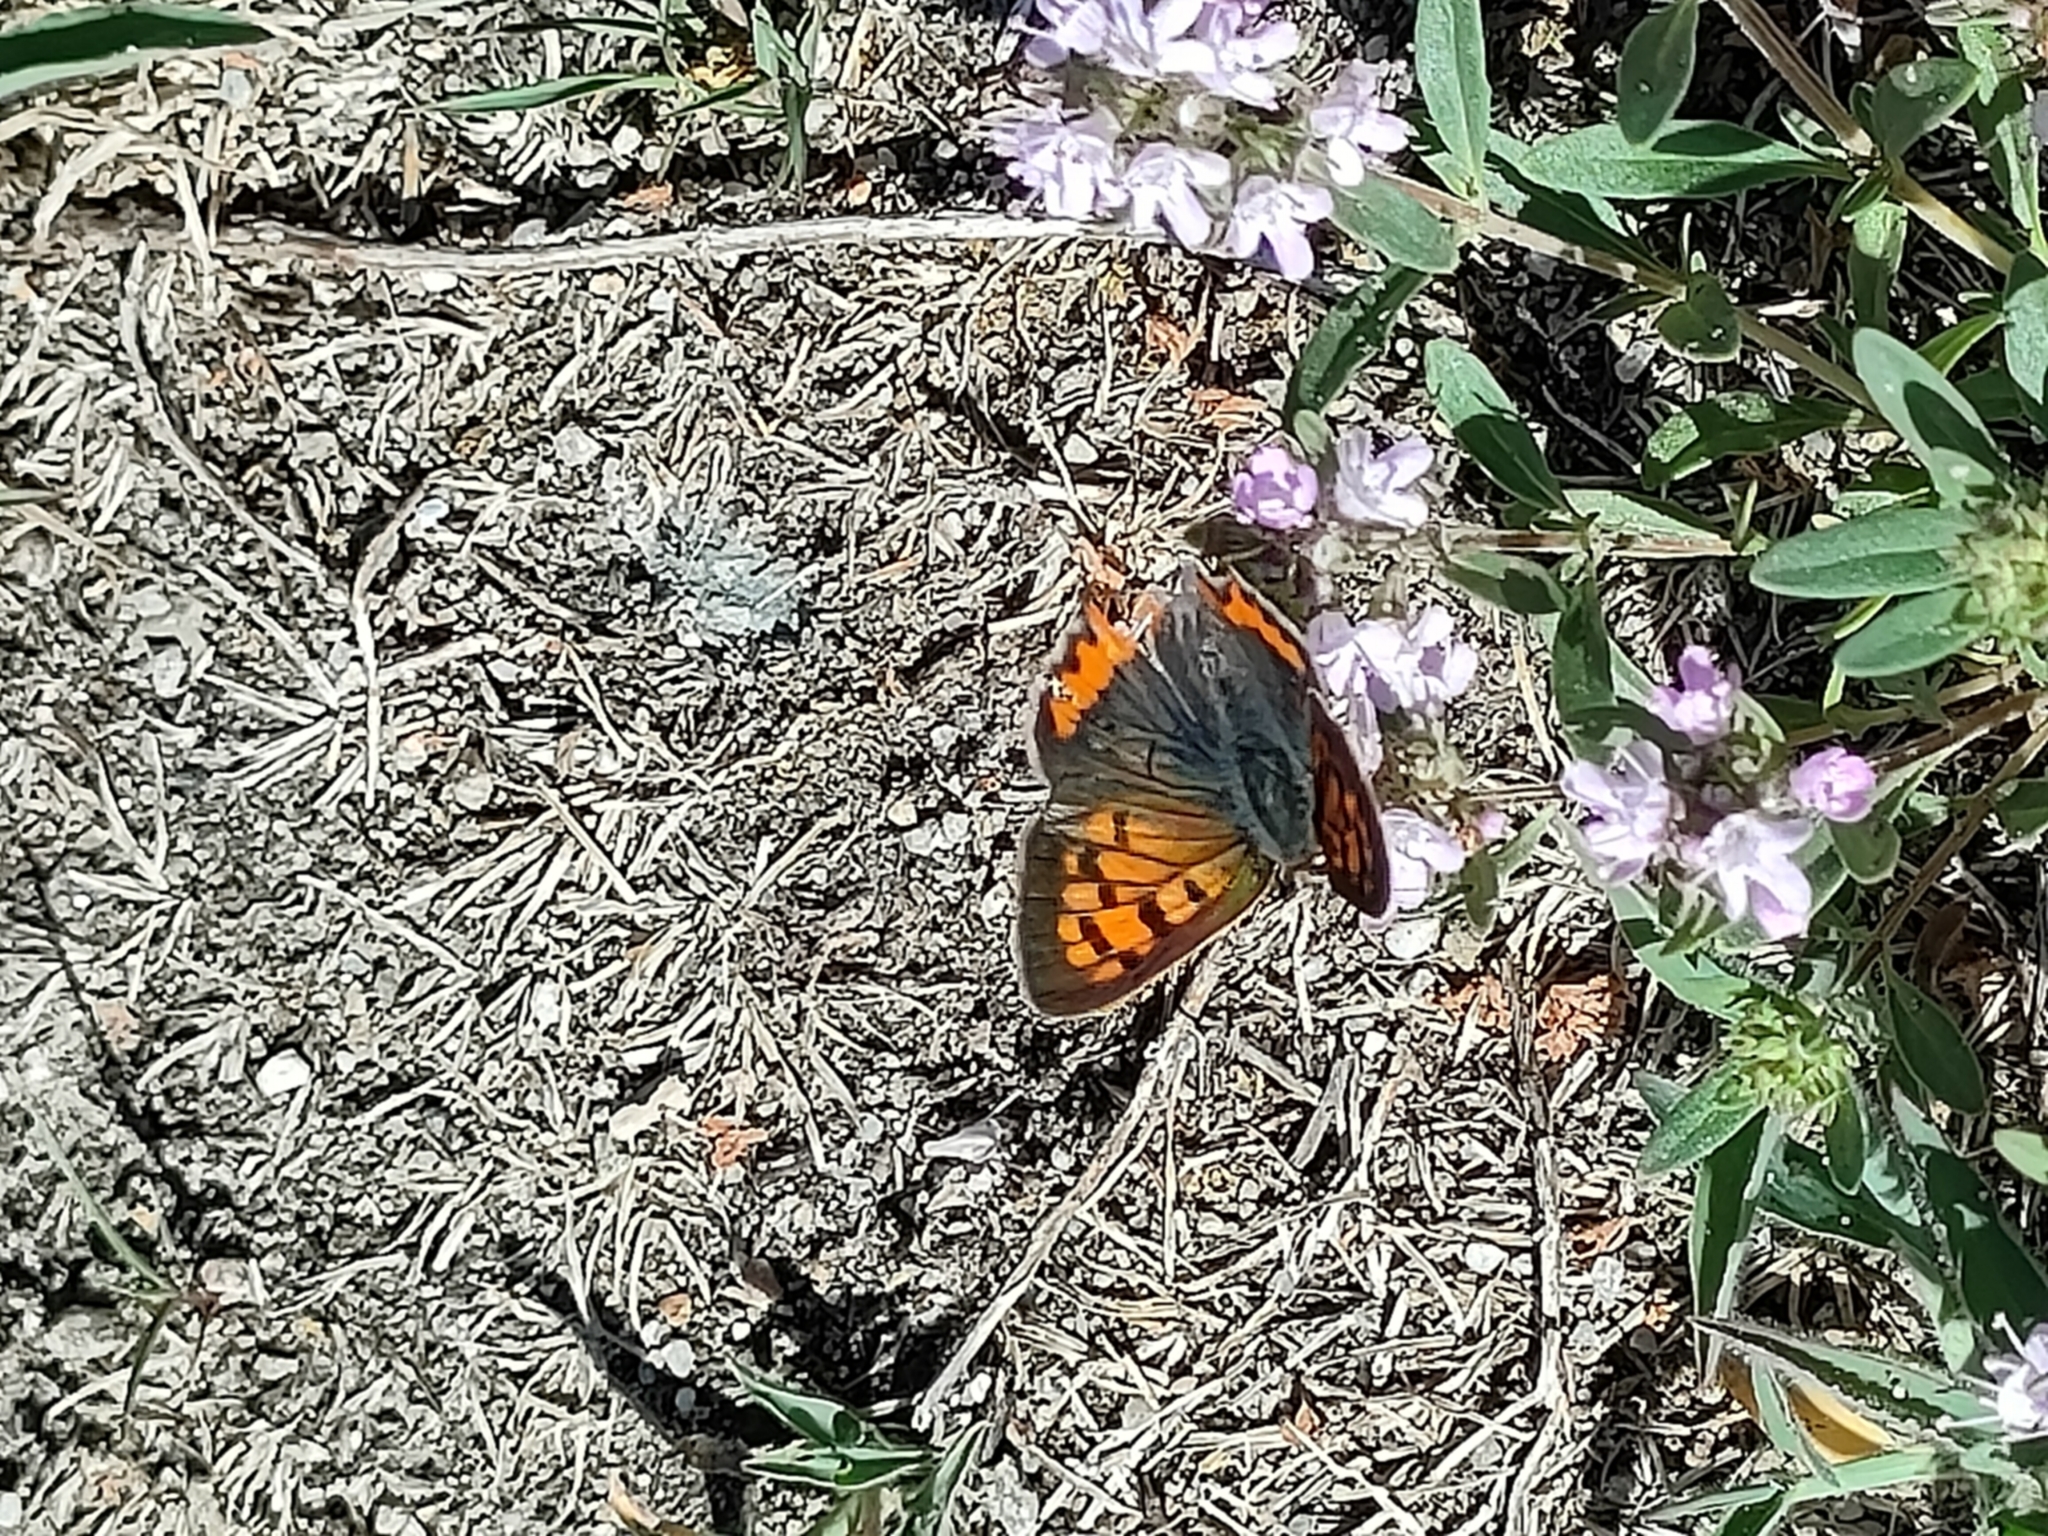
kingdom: Animalia
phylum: Arthropoda
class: Insecta
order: Lepidoptera
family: Lycaenidae
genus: Lycaena
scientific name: Lycaena phlaeas
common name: Small copper
